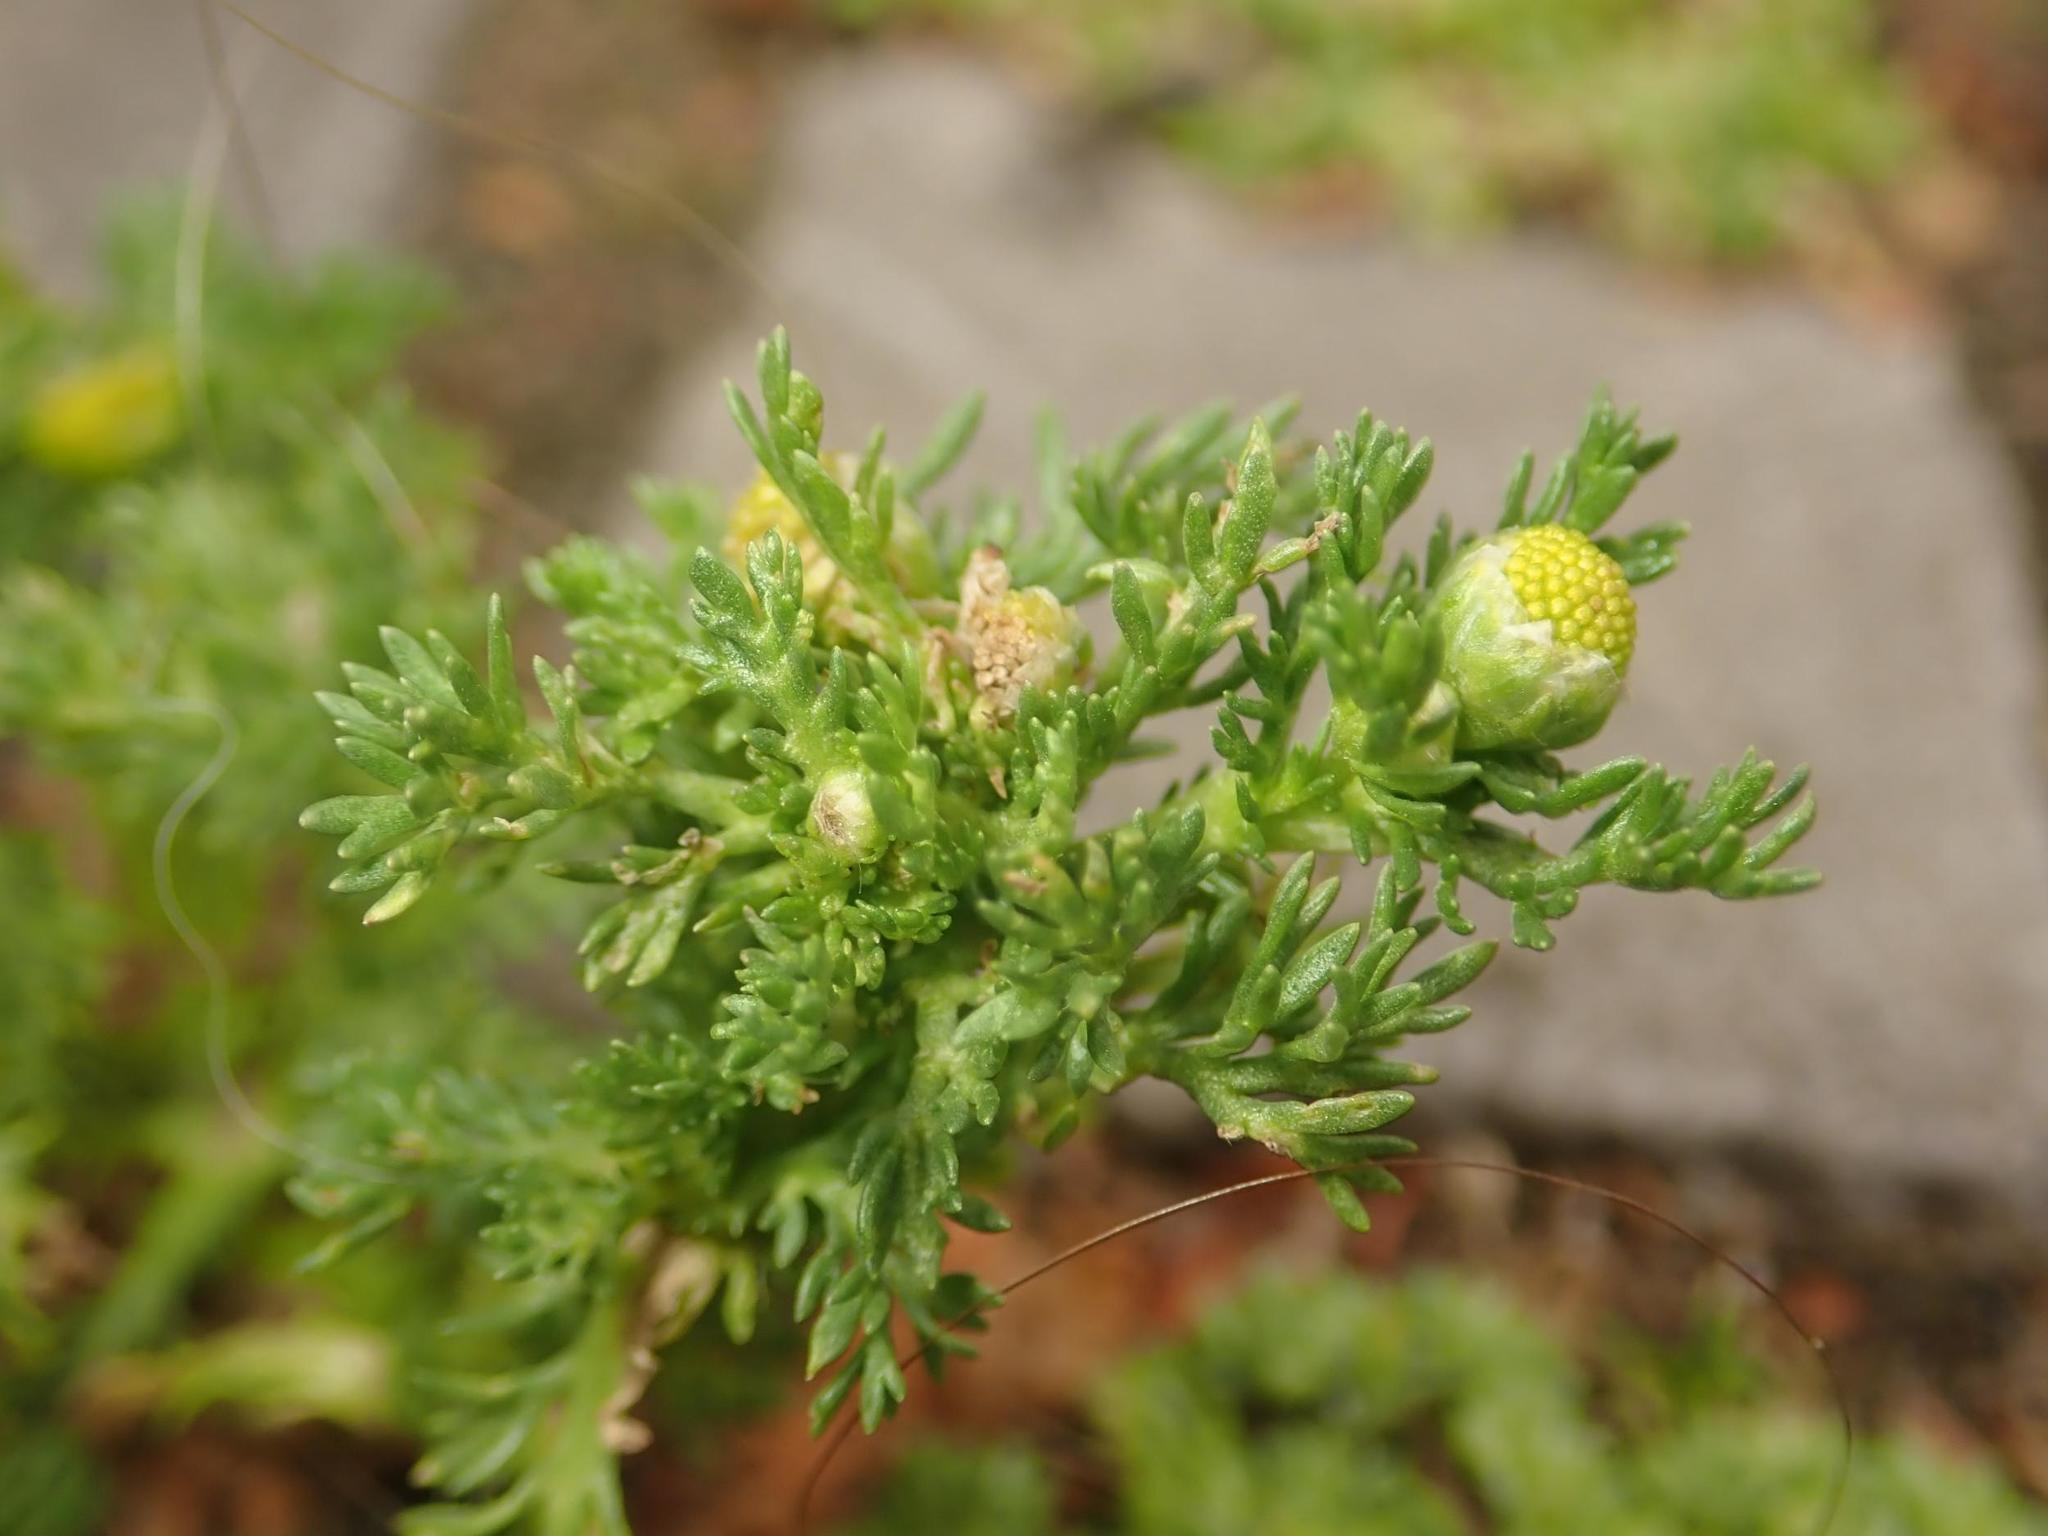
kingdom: Plantae
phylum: Tracheophyta
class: Magnoliopsida
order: Asterales
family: Asteraceae
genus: Matricaria
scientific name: Matricaria discoidea
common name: Disc mayweed
